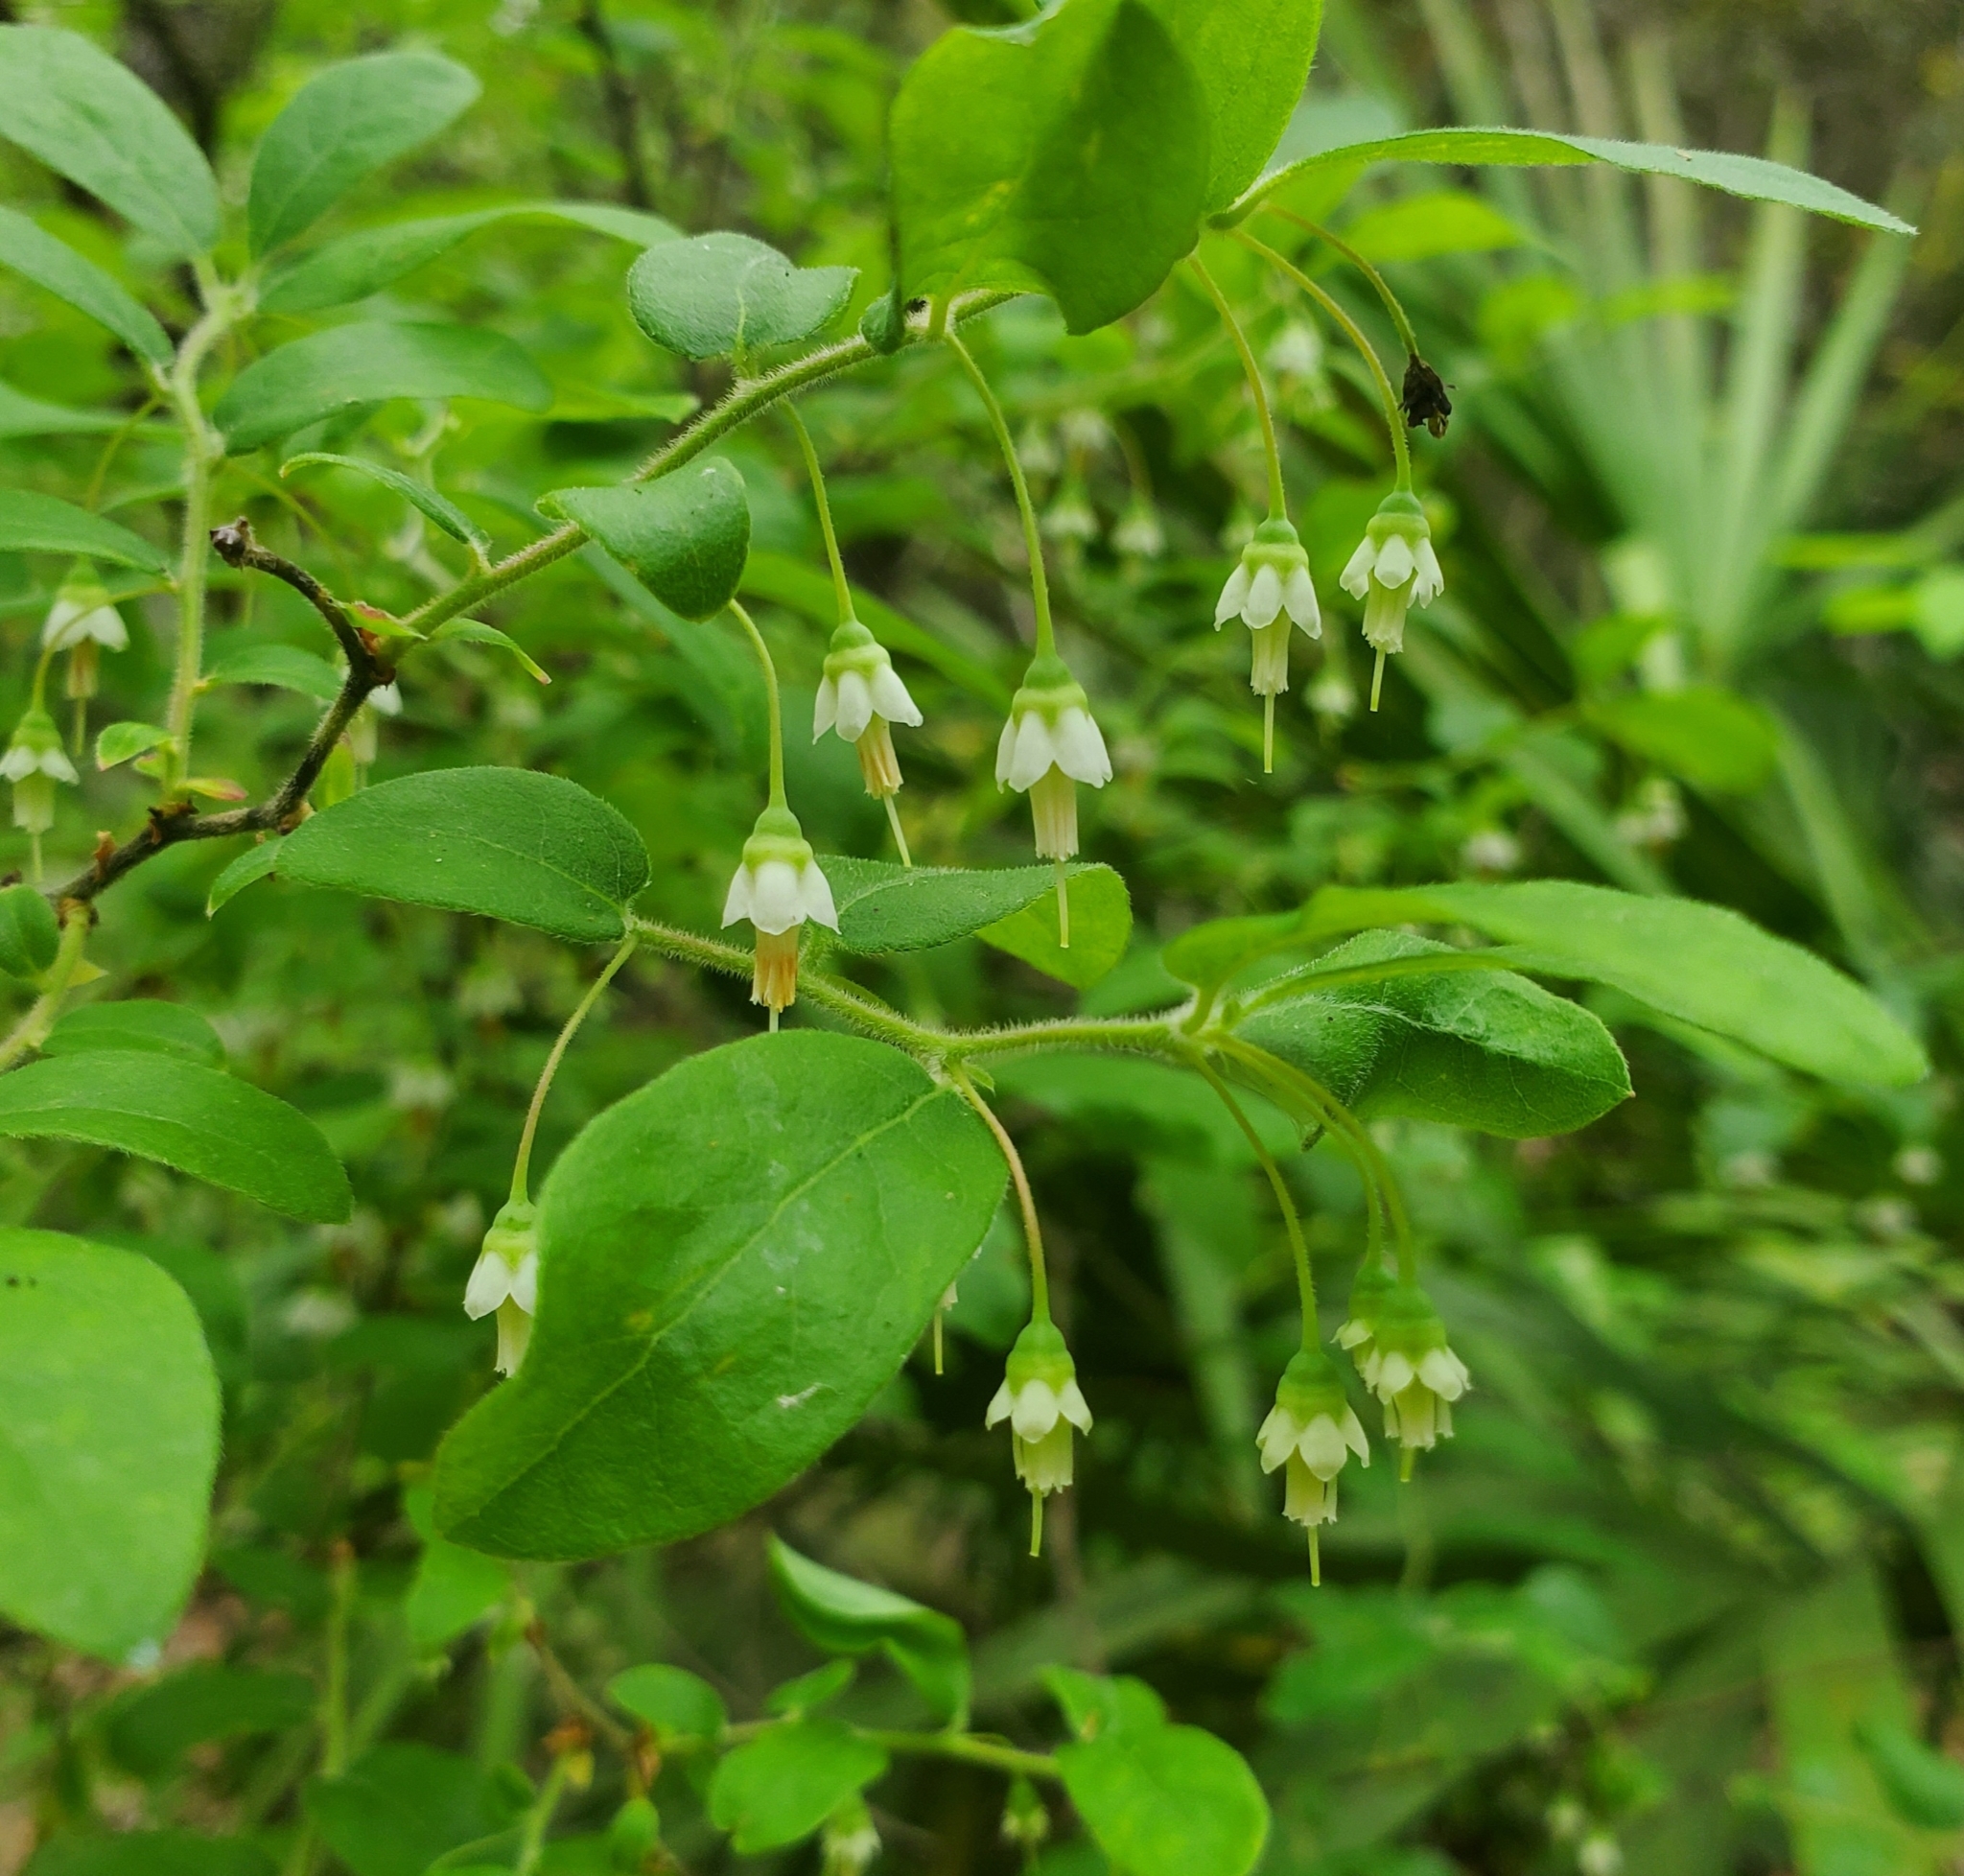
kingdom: Plantae
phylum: Tracheophyta
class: Magnoliopsida
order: Ericales
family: Ericaceae
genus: Vaccinium
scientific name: Vaccinium stamineum
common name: Deerberry
